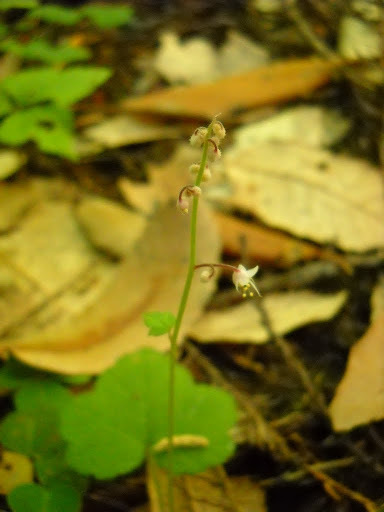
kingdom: Plantae
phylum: Tracheophyta
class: Magnoliopsida
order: Saxifragales
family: Saxifragaceae
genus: Tiarella
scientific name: Tiarella trifoliata
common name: Sugar-scoop
